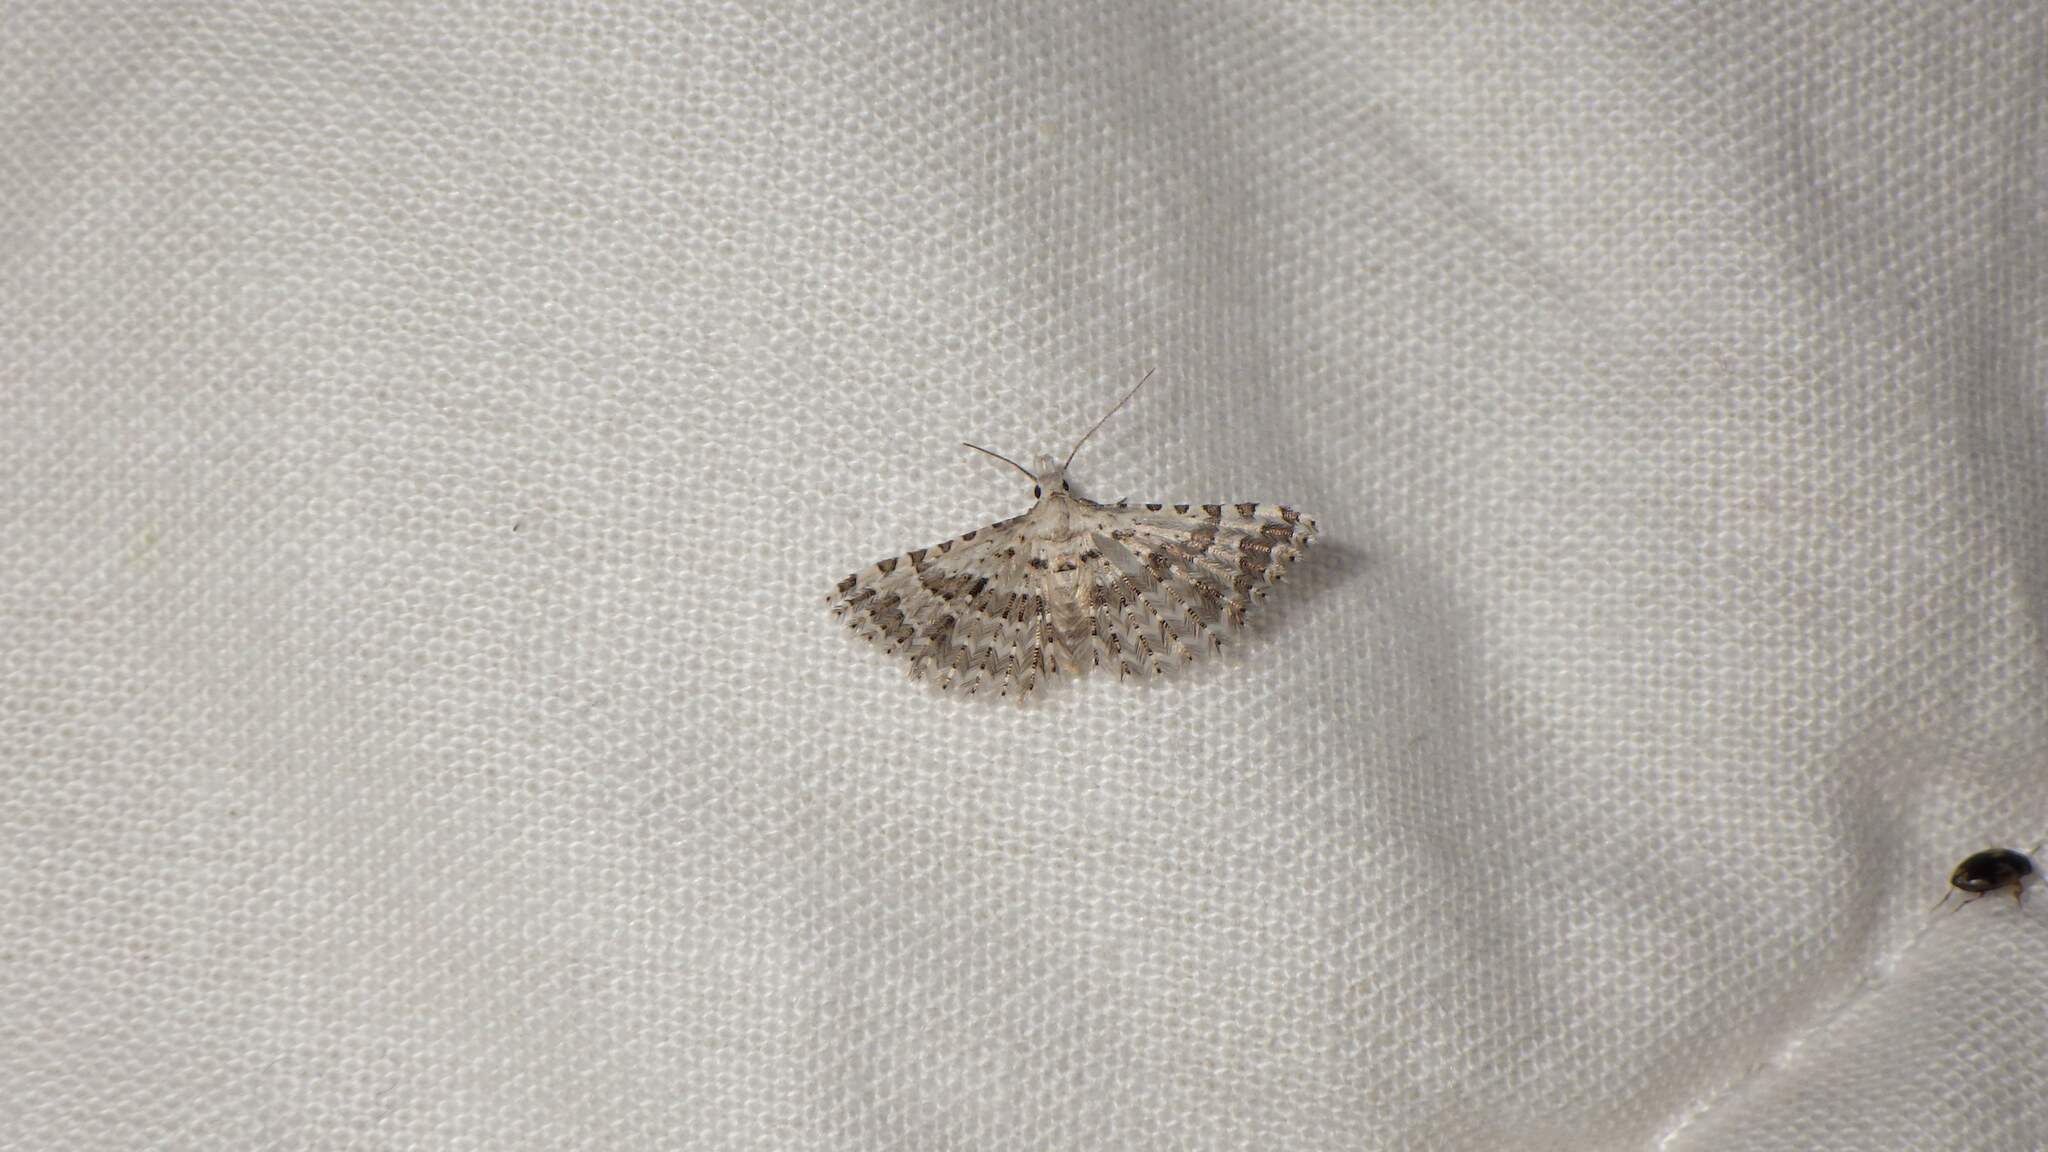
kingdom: Animalia
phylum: Arthropoda
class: Insecta
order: Lepidoptera
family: Alucitidae
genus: Alucita
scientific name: Alucita palodactyla
